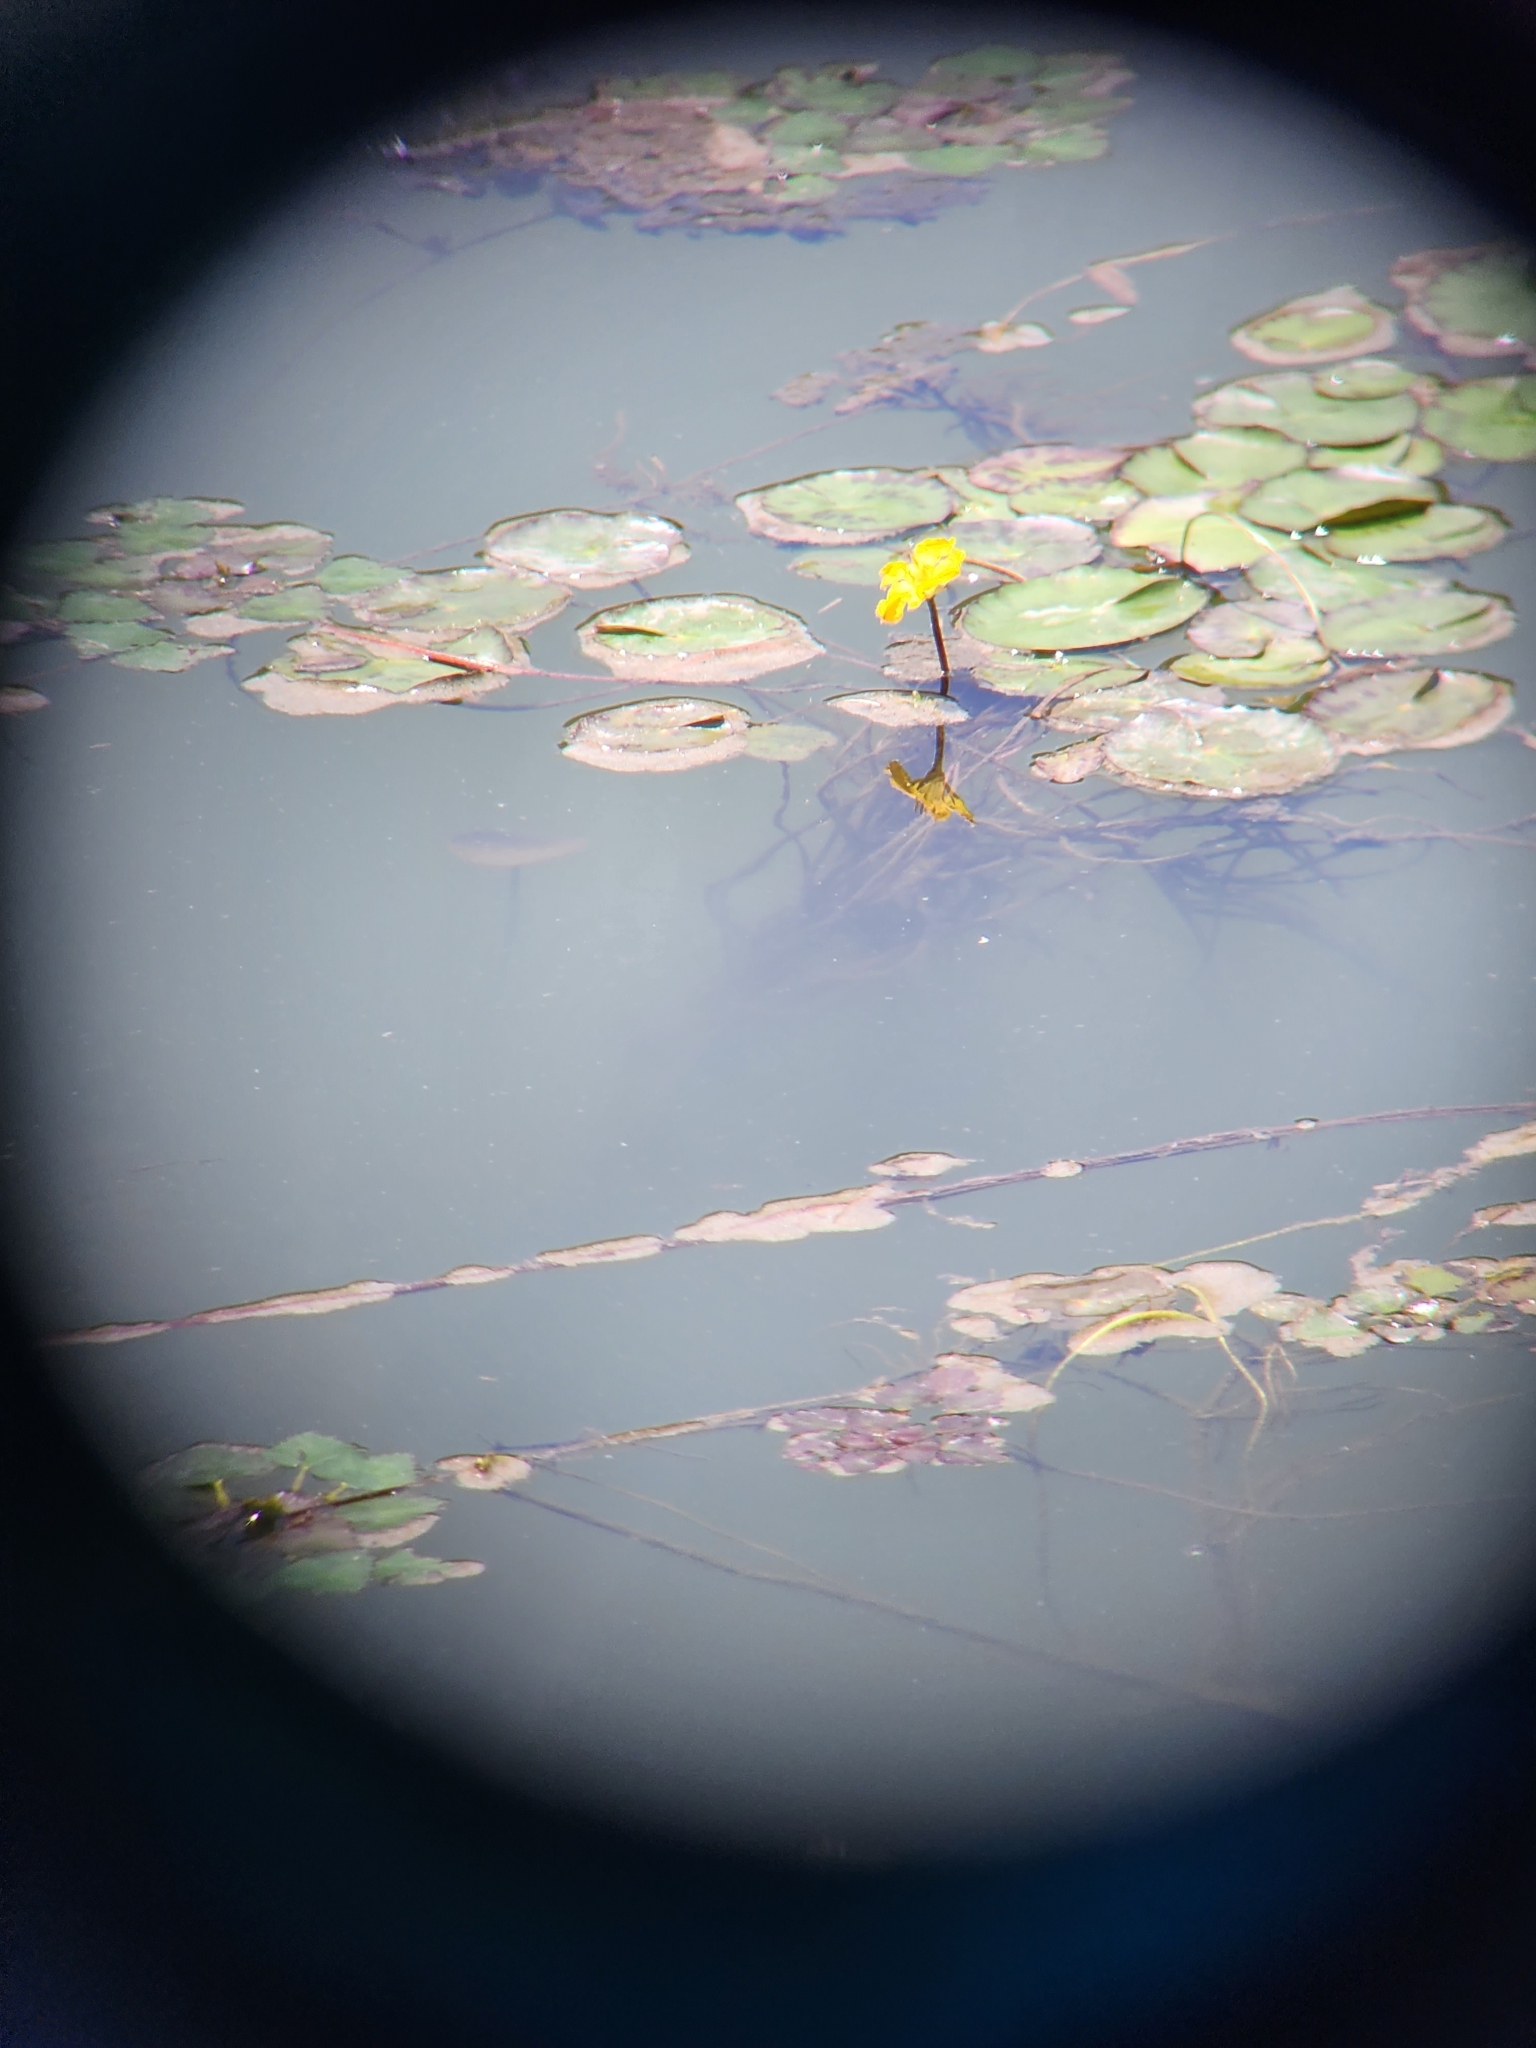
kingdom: Plantae
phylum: Tracheophyta
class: Magnoliopsida
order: Asterales
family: Menyanthaceae
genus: Nymphoides
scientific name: Nymphoides peltata
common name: Fringed water-lily
